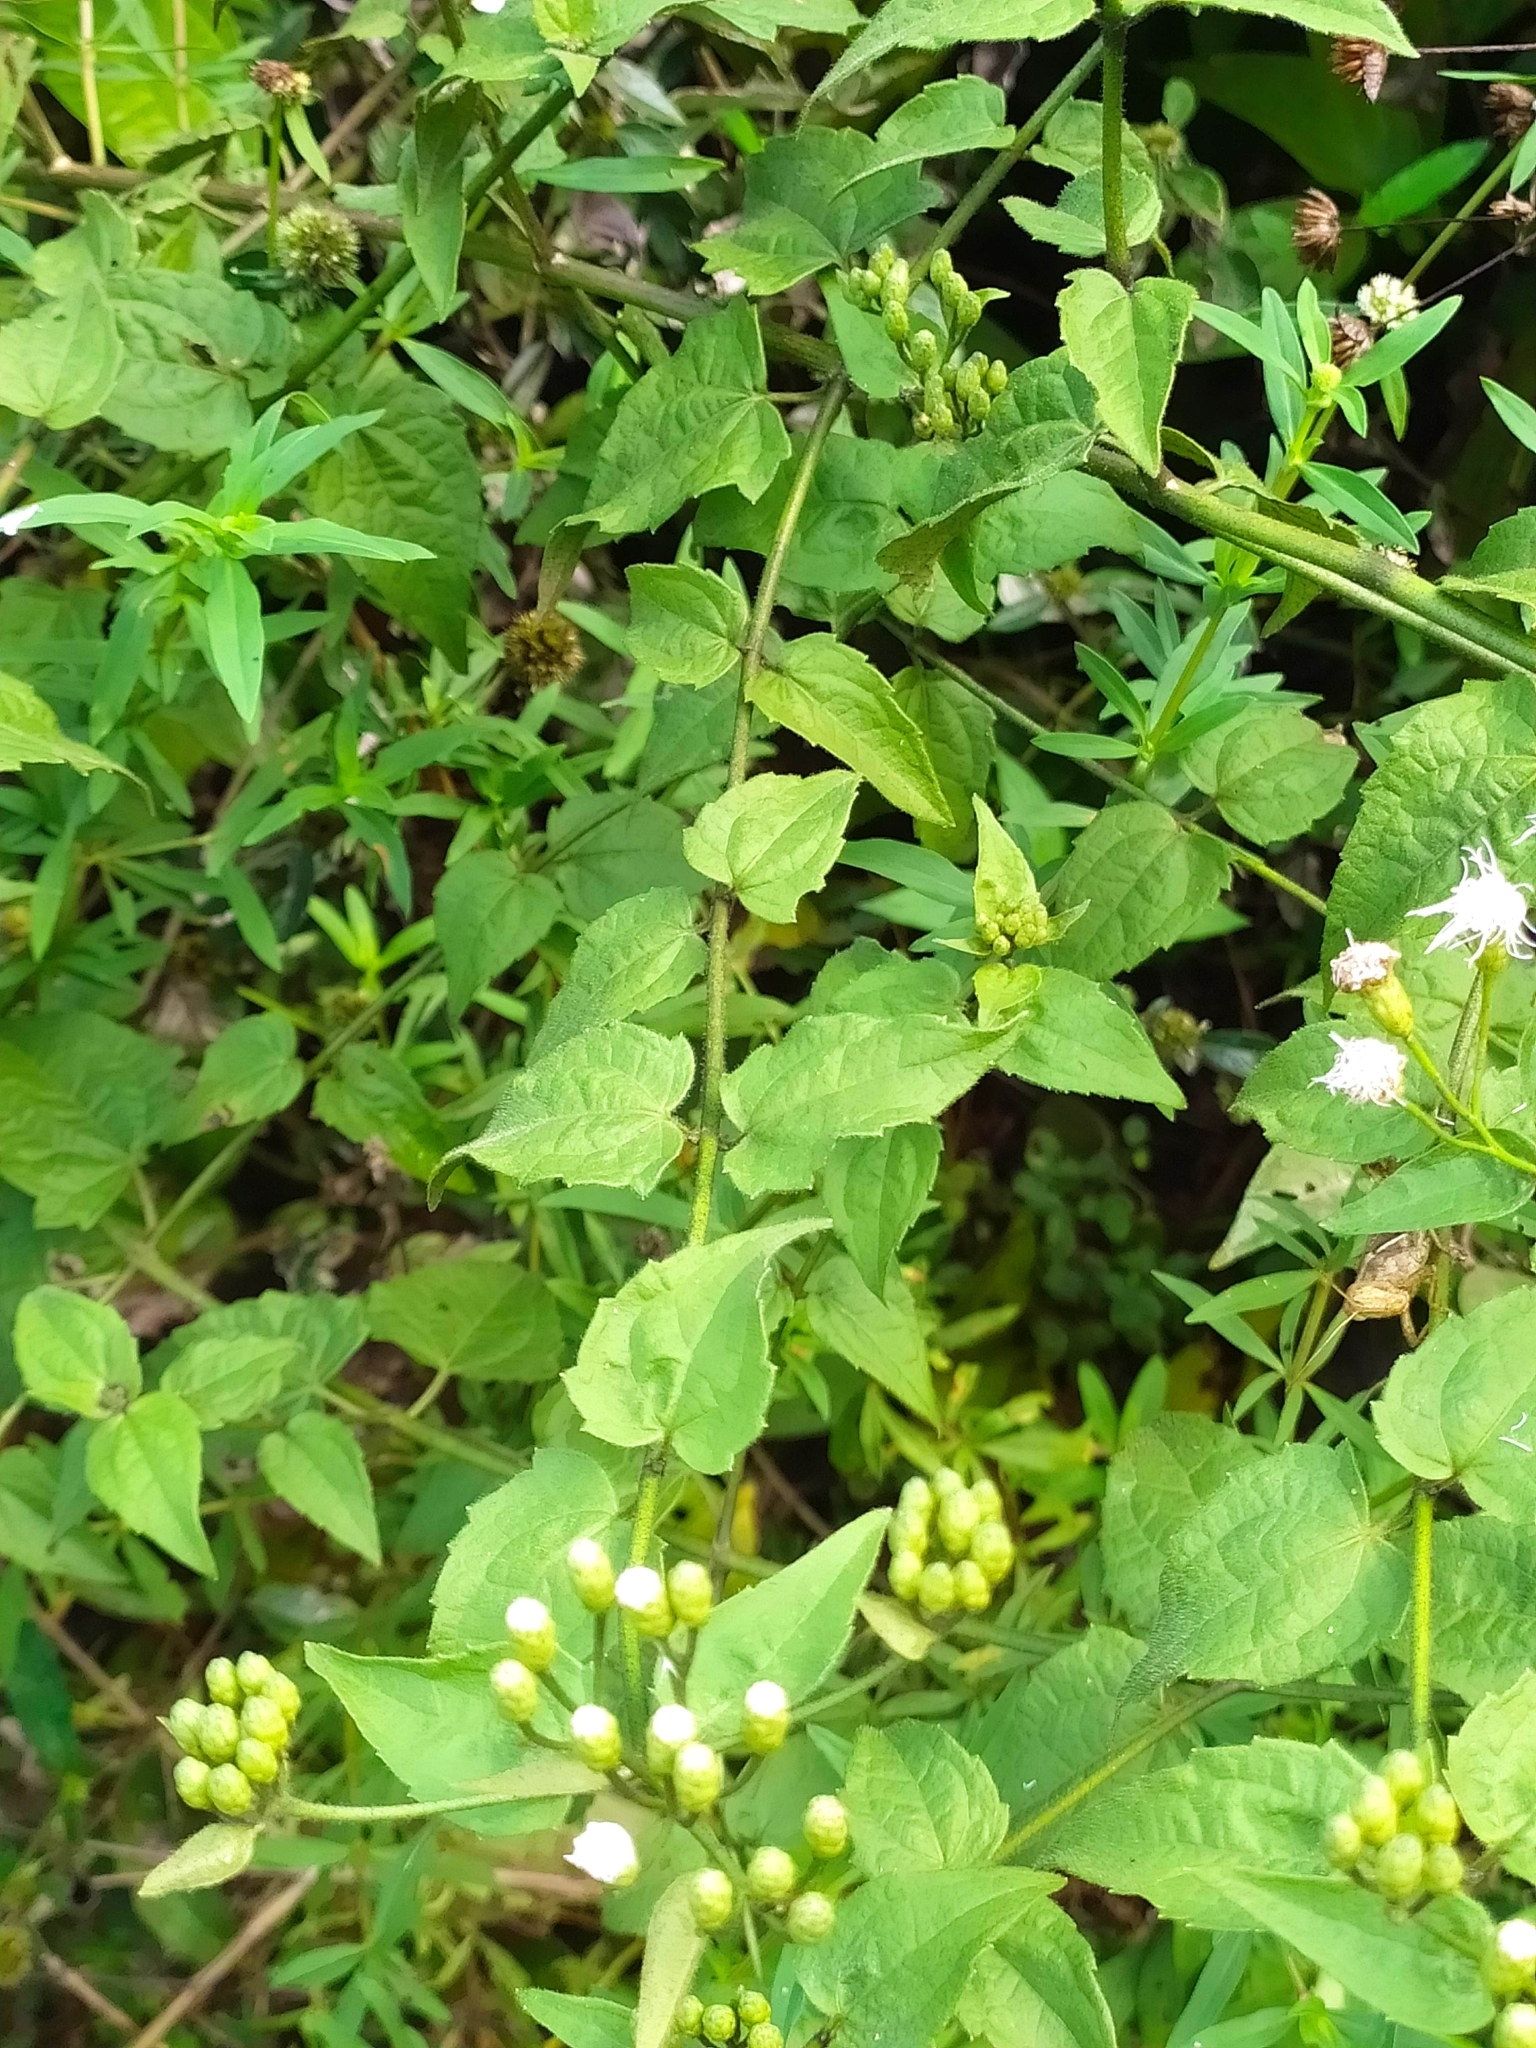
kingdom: Plantae
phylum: Tracheophyta
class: Magnoliopsida
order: Asterales
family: Asteraceae
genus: Chromolaena
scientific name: Chromolaena odorata
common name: Siamweed
